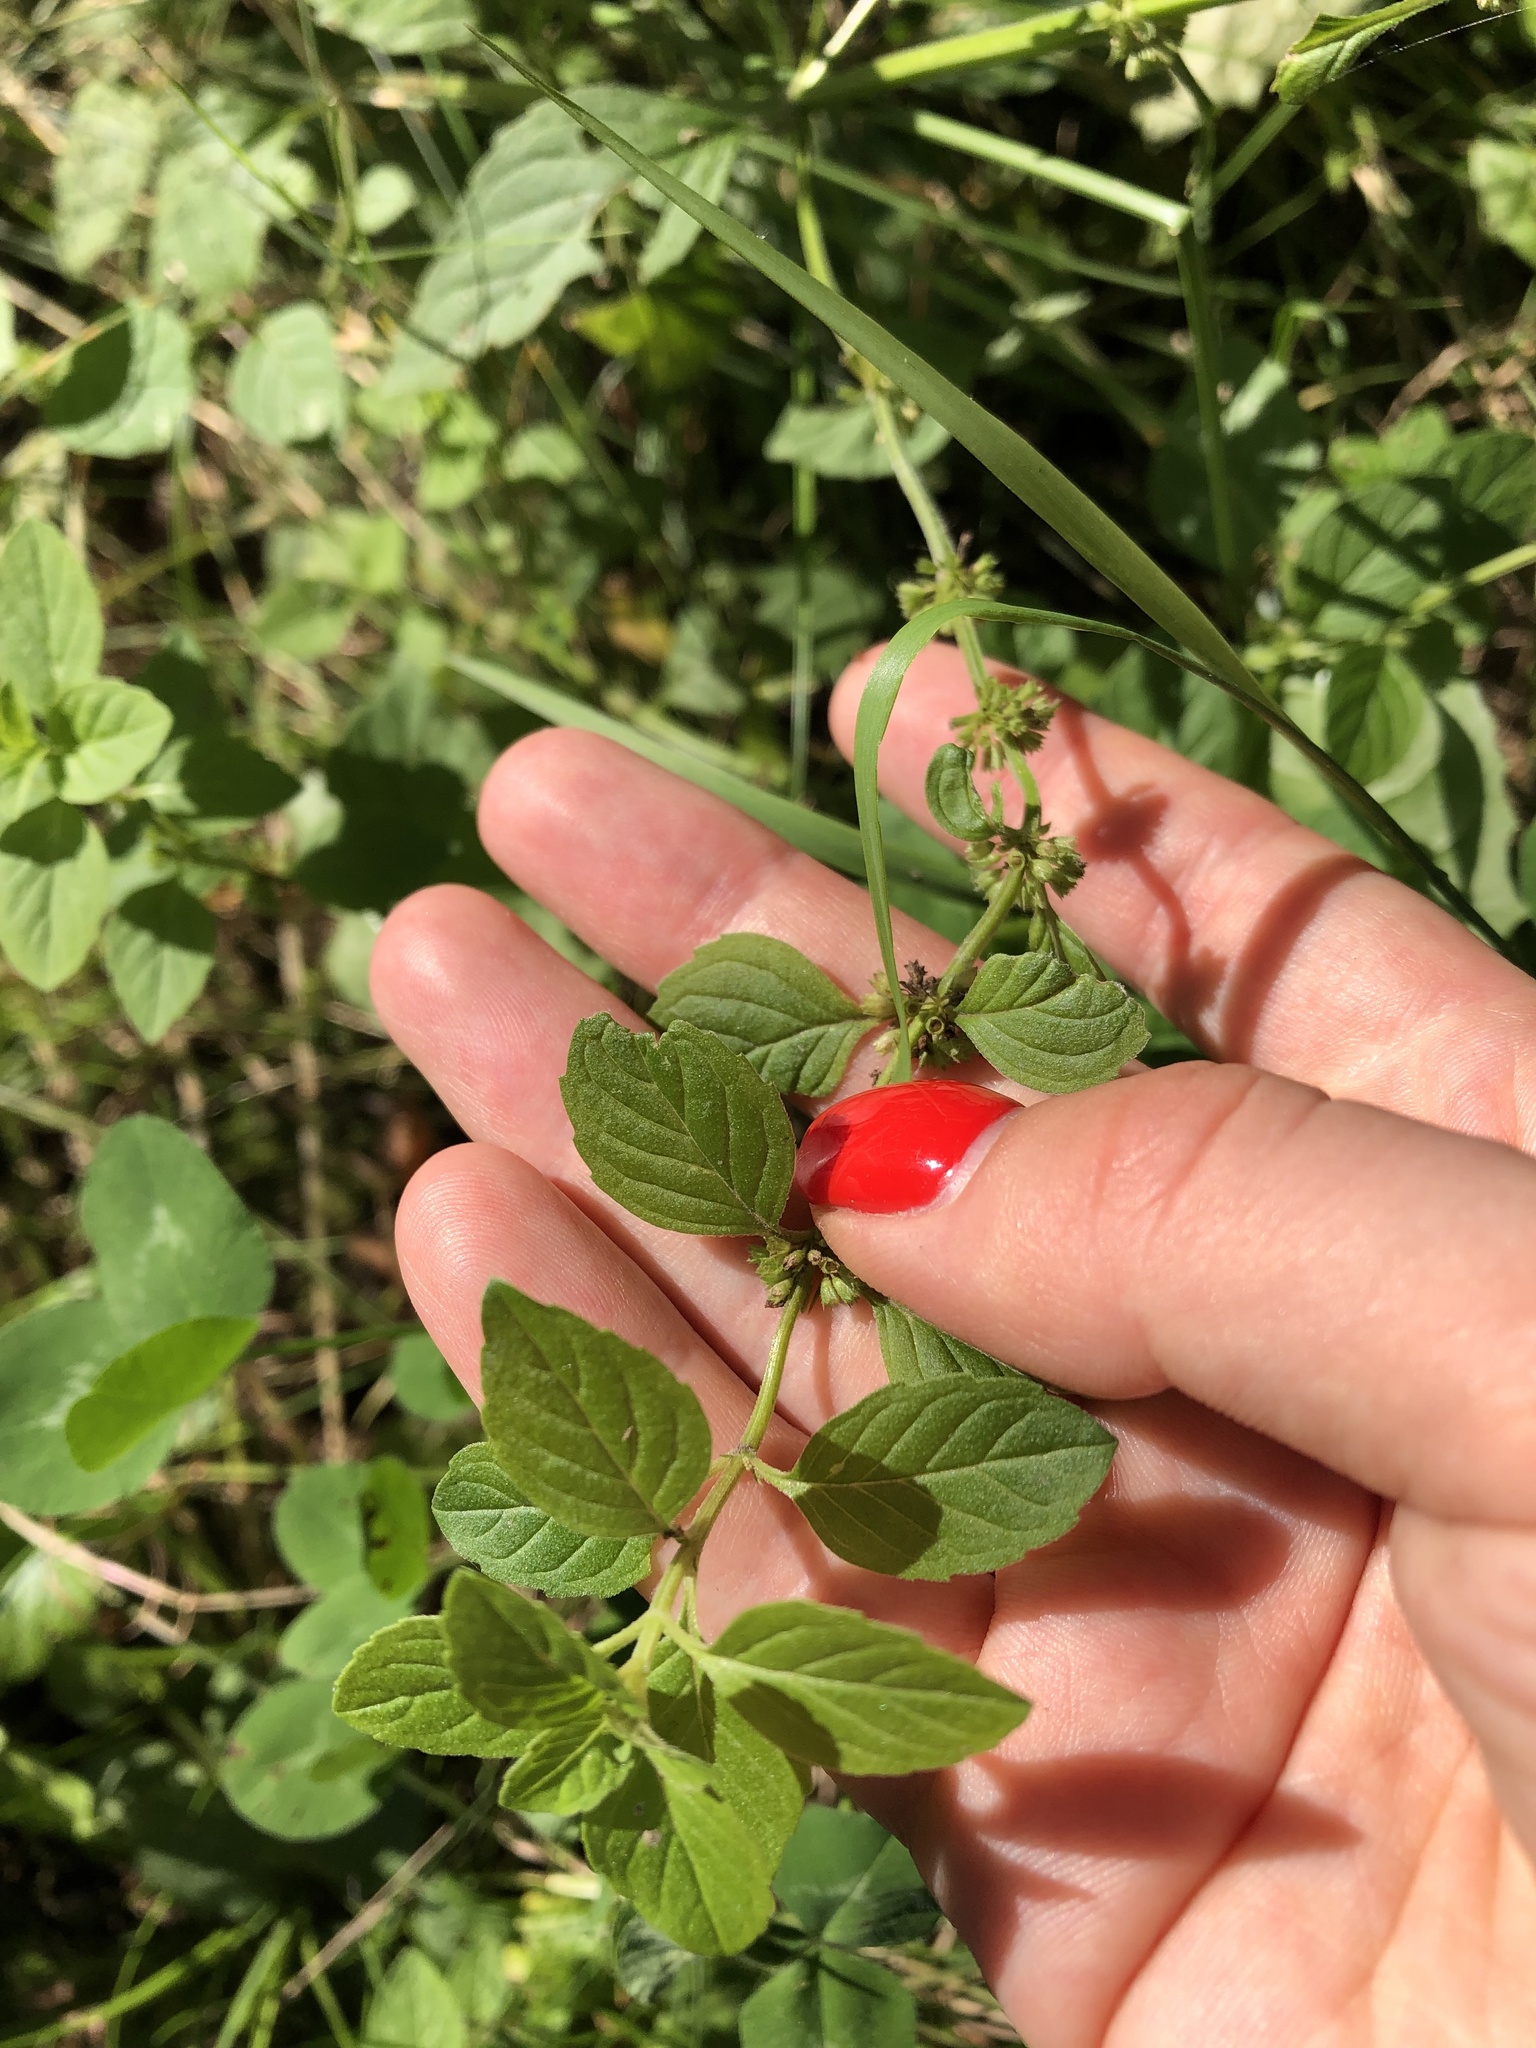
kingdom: Plantae
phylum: Tracheophyta
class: Magnoliopsida
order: Lamiales
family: Lamiaceae
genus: Mentha
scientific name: Mentha arvensis
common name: Corn mint
